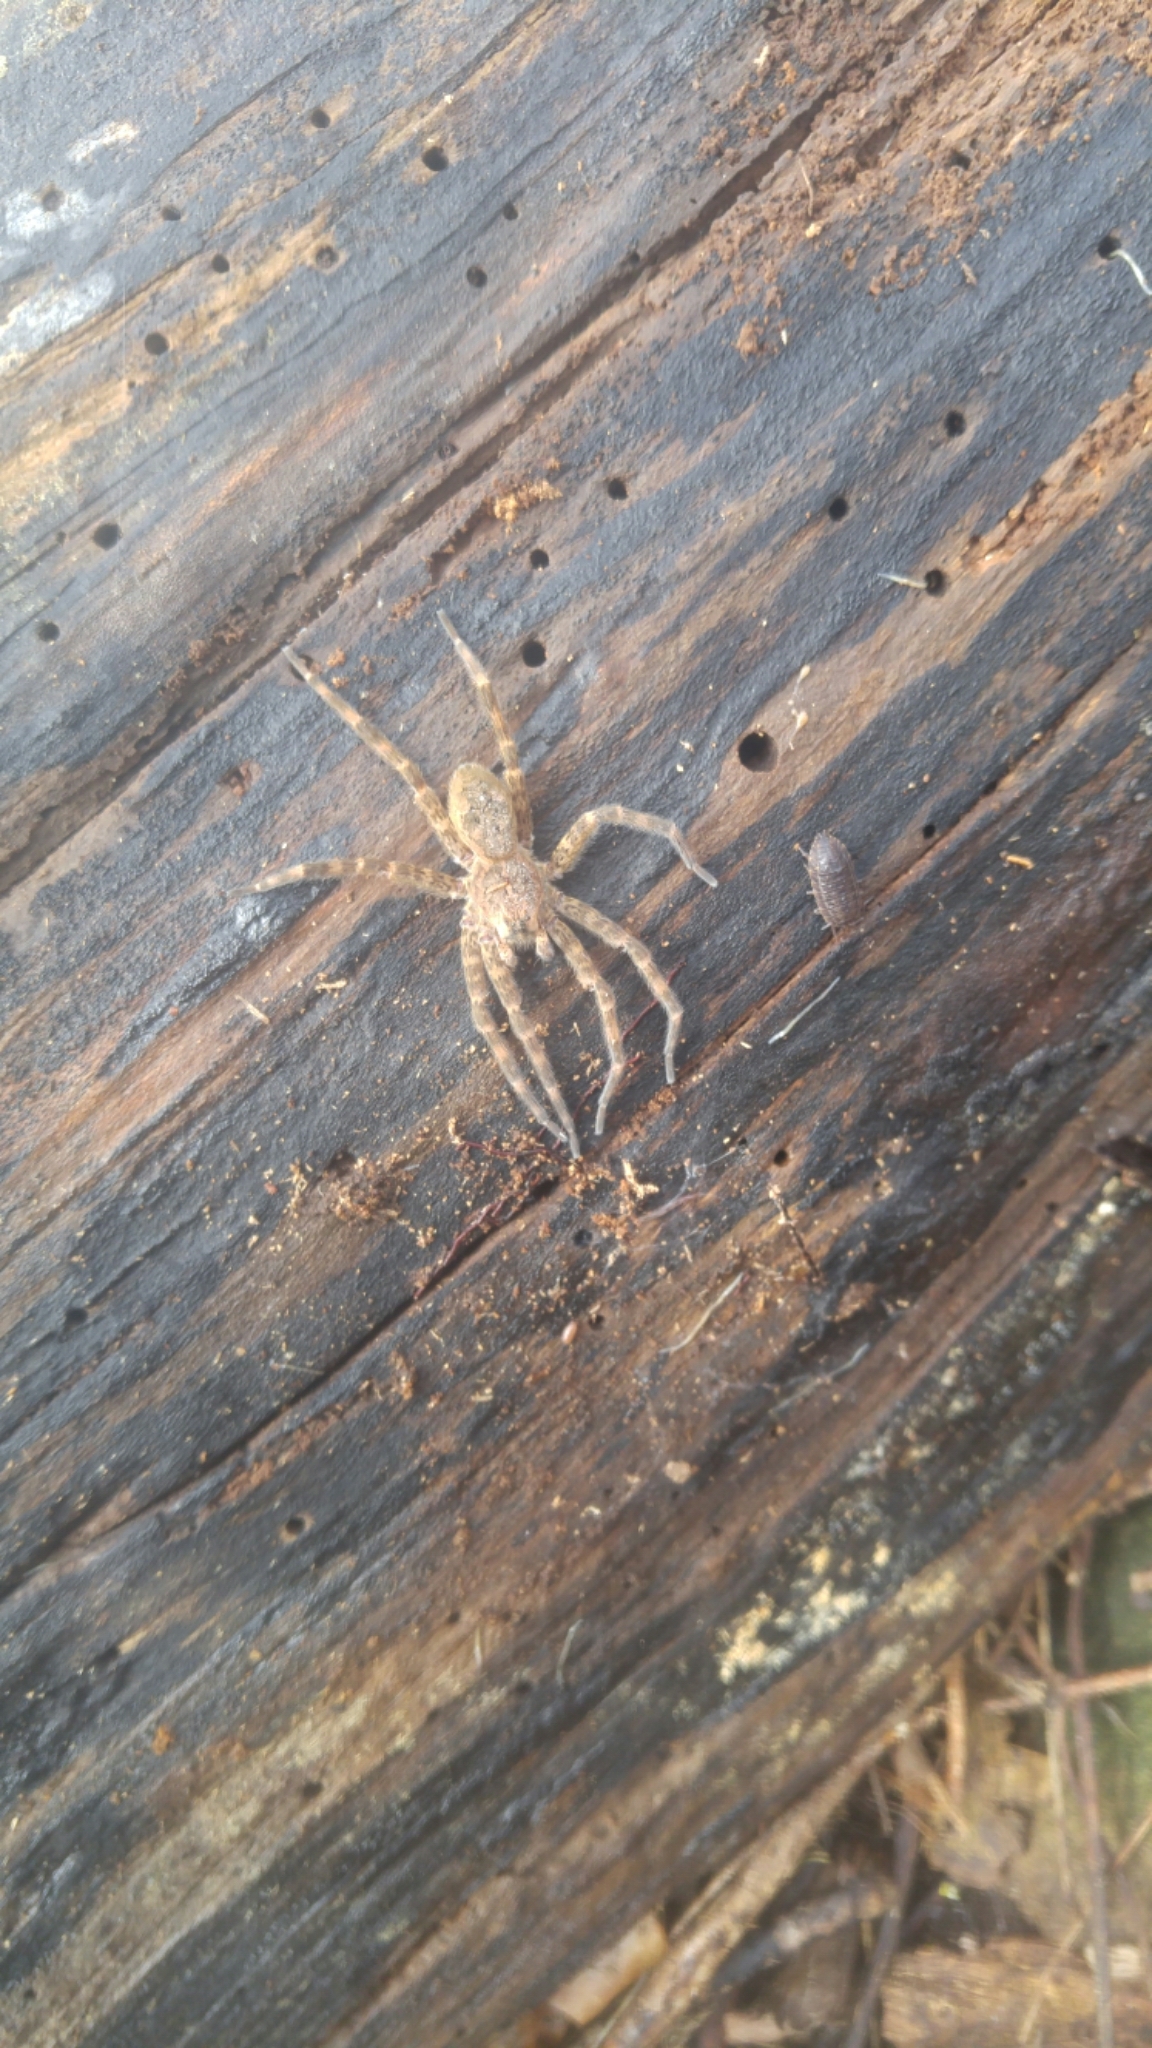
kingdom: Animalia
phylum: Arthropoda
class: Arachnida
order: Araneae
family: Pisauridae
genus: Dolomedes
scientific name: Dolomedes tenebrosus
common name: Dark fishing spider
